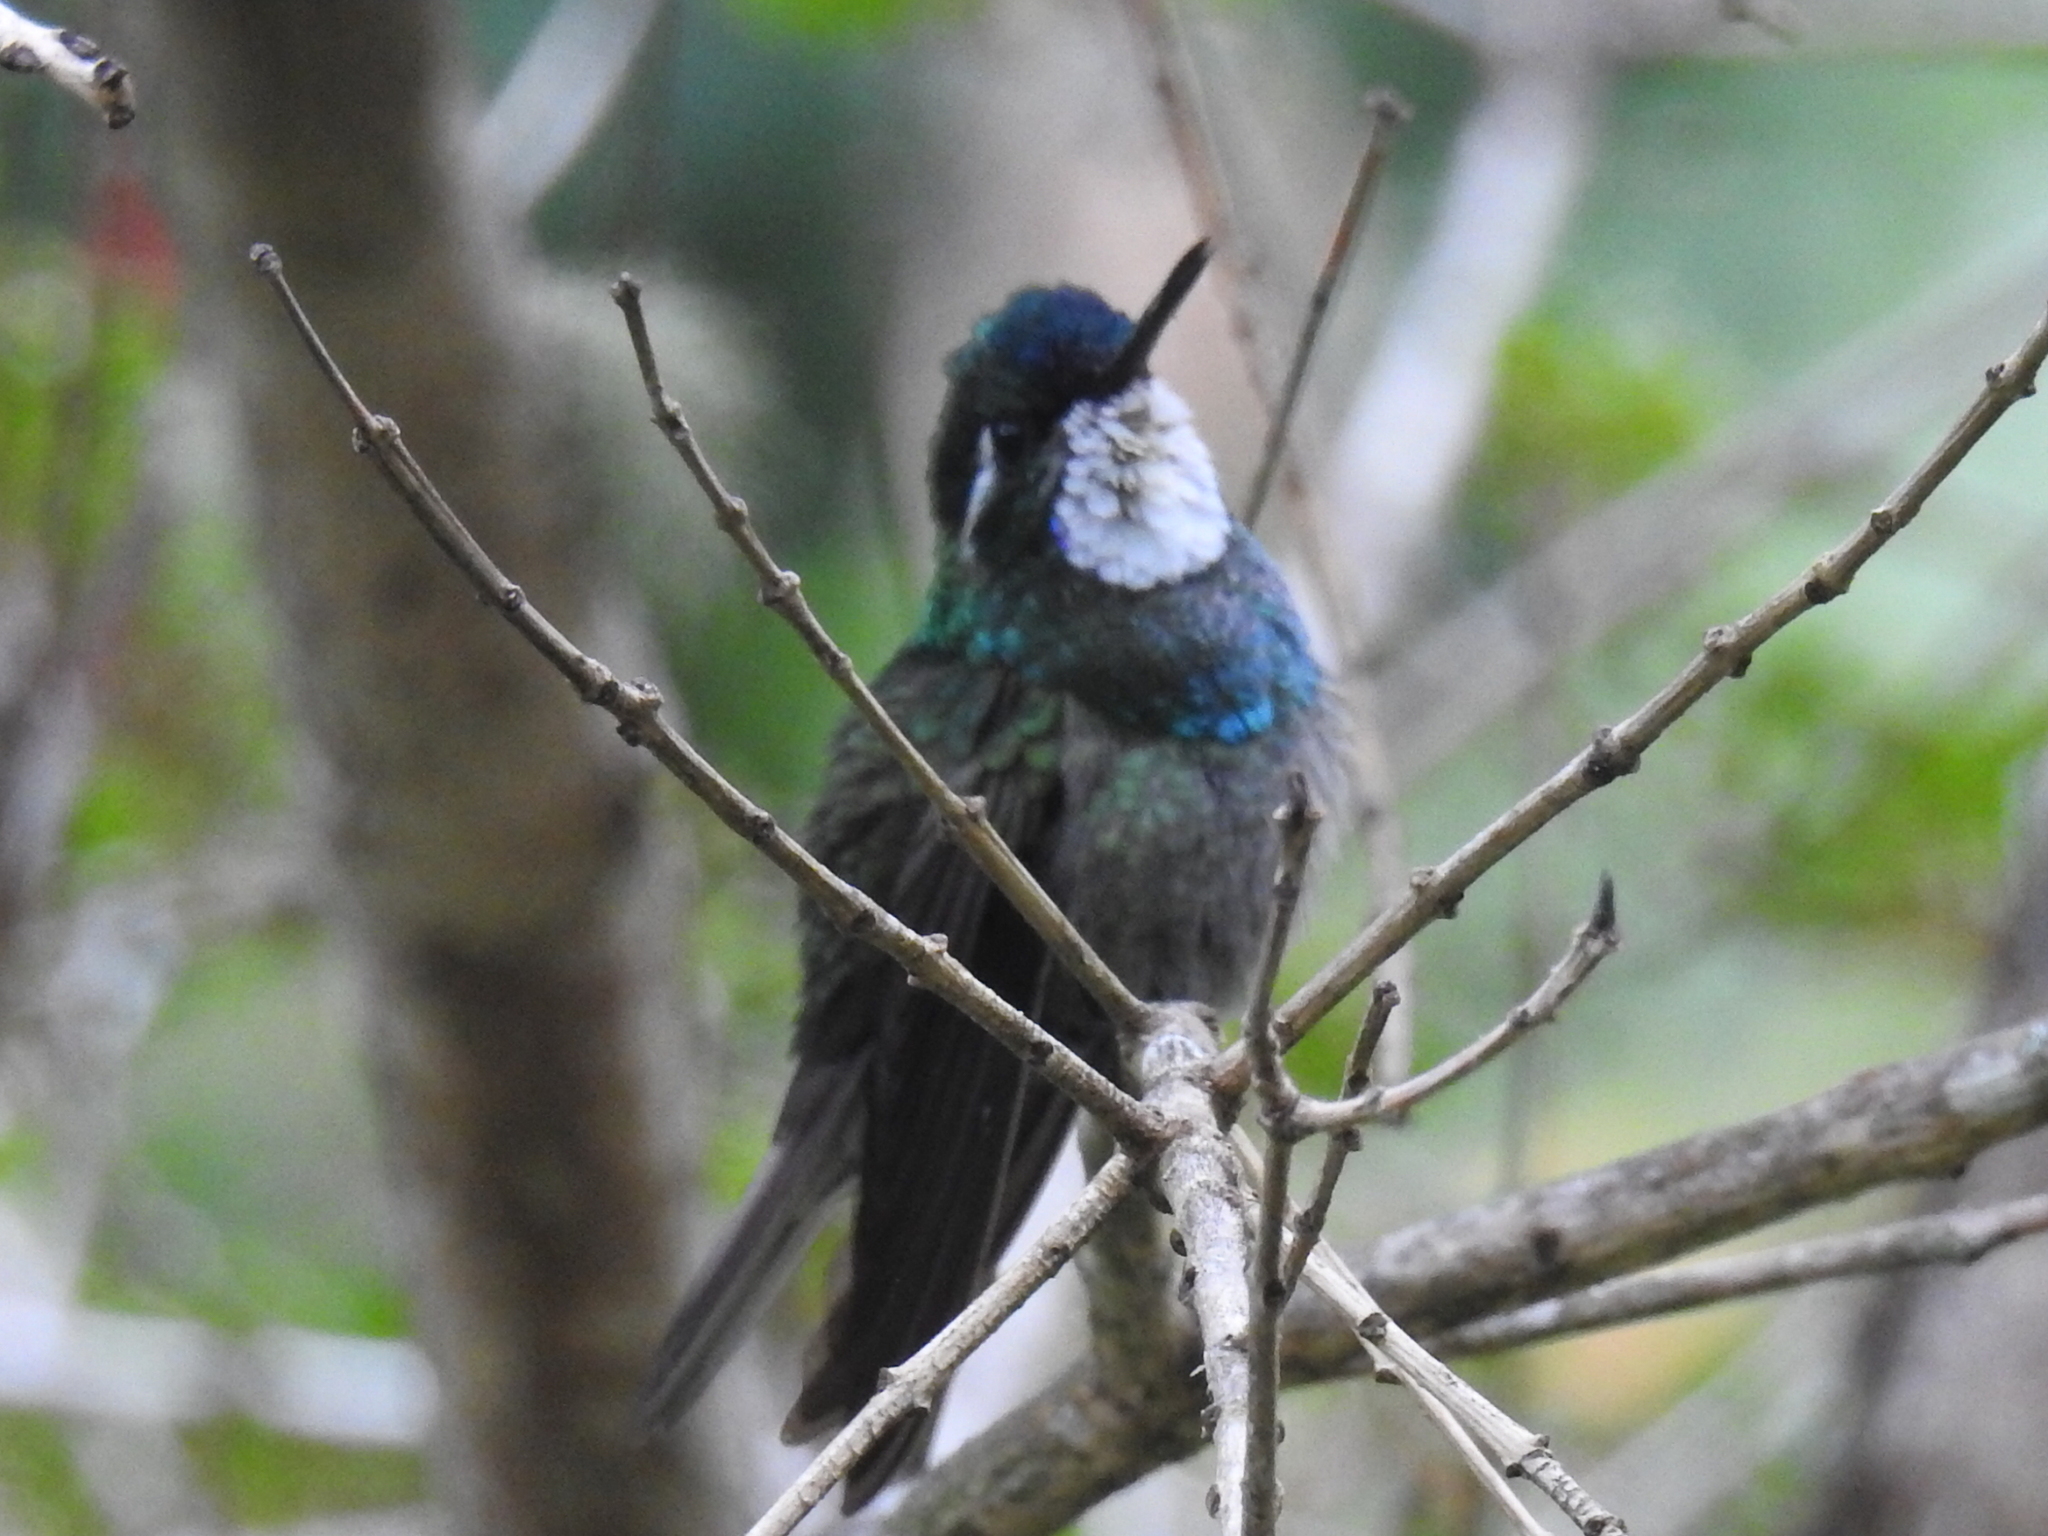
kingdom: Animalia
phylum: Chordata
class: Aves
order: Apodiformes
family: Trochilidae
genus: Lampornis
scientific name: Lampornis castaneoventris
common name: White-throated mountain-gem
